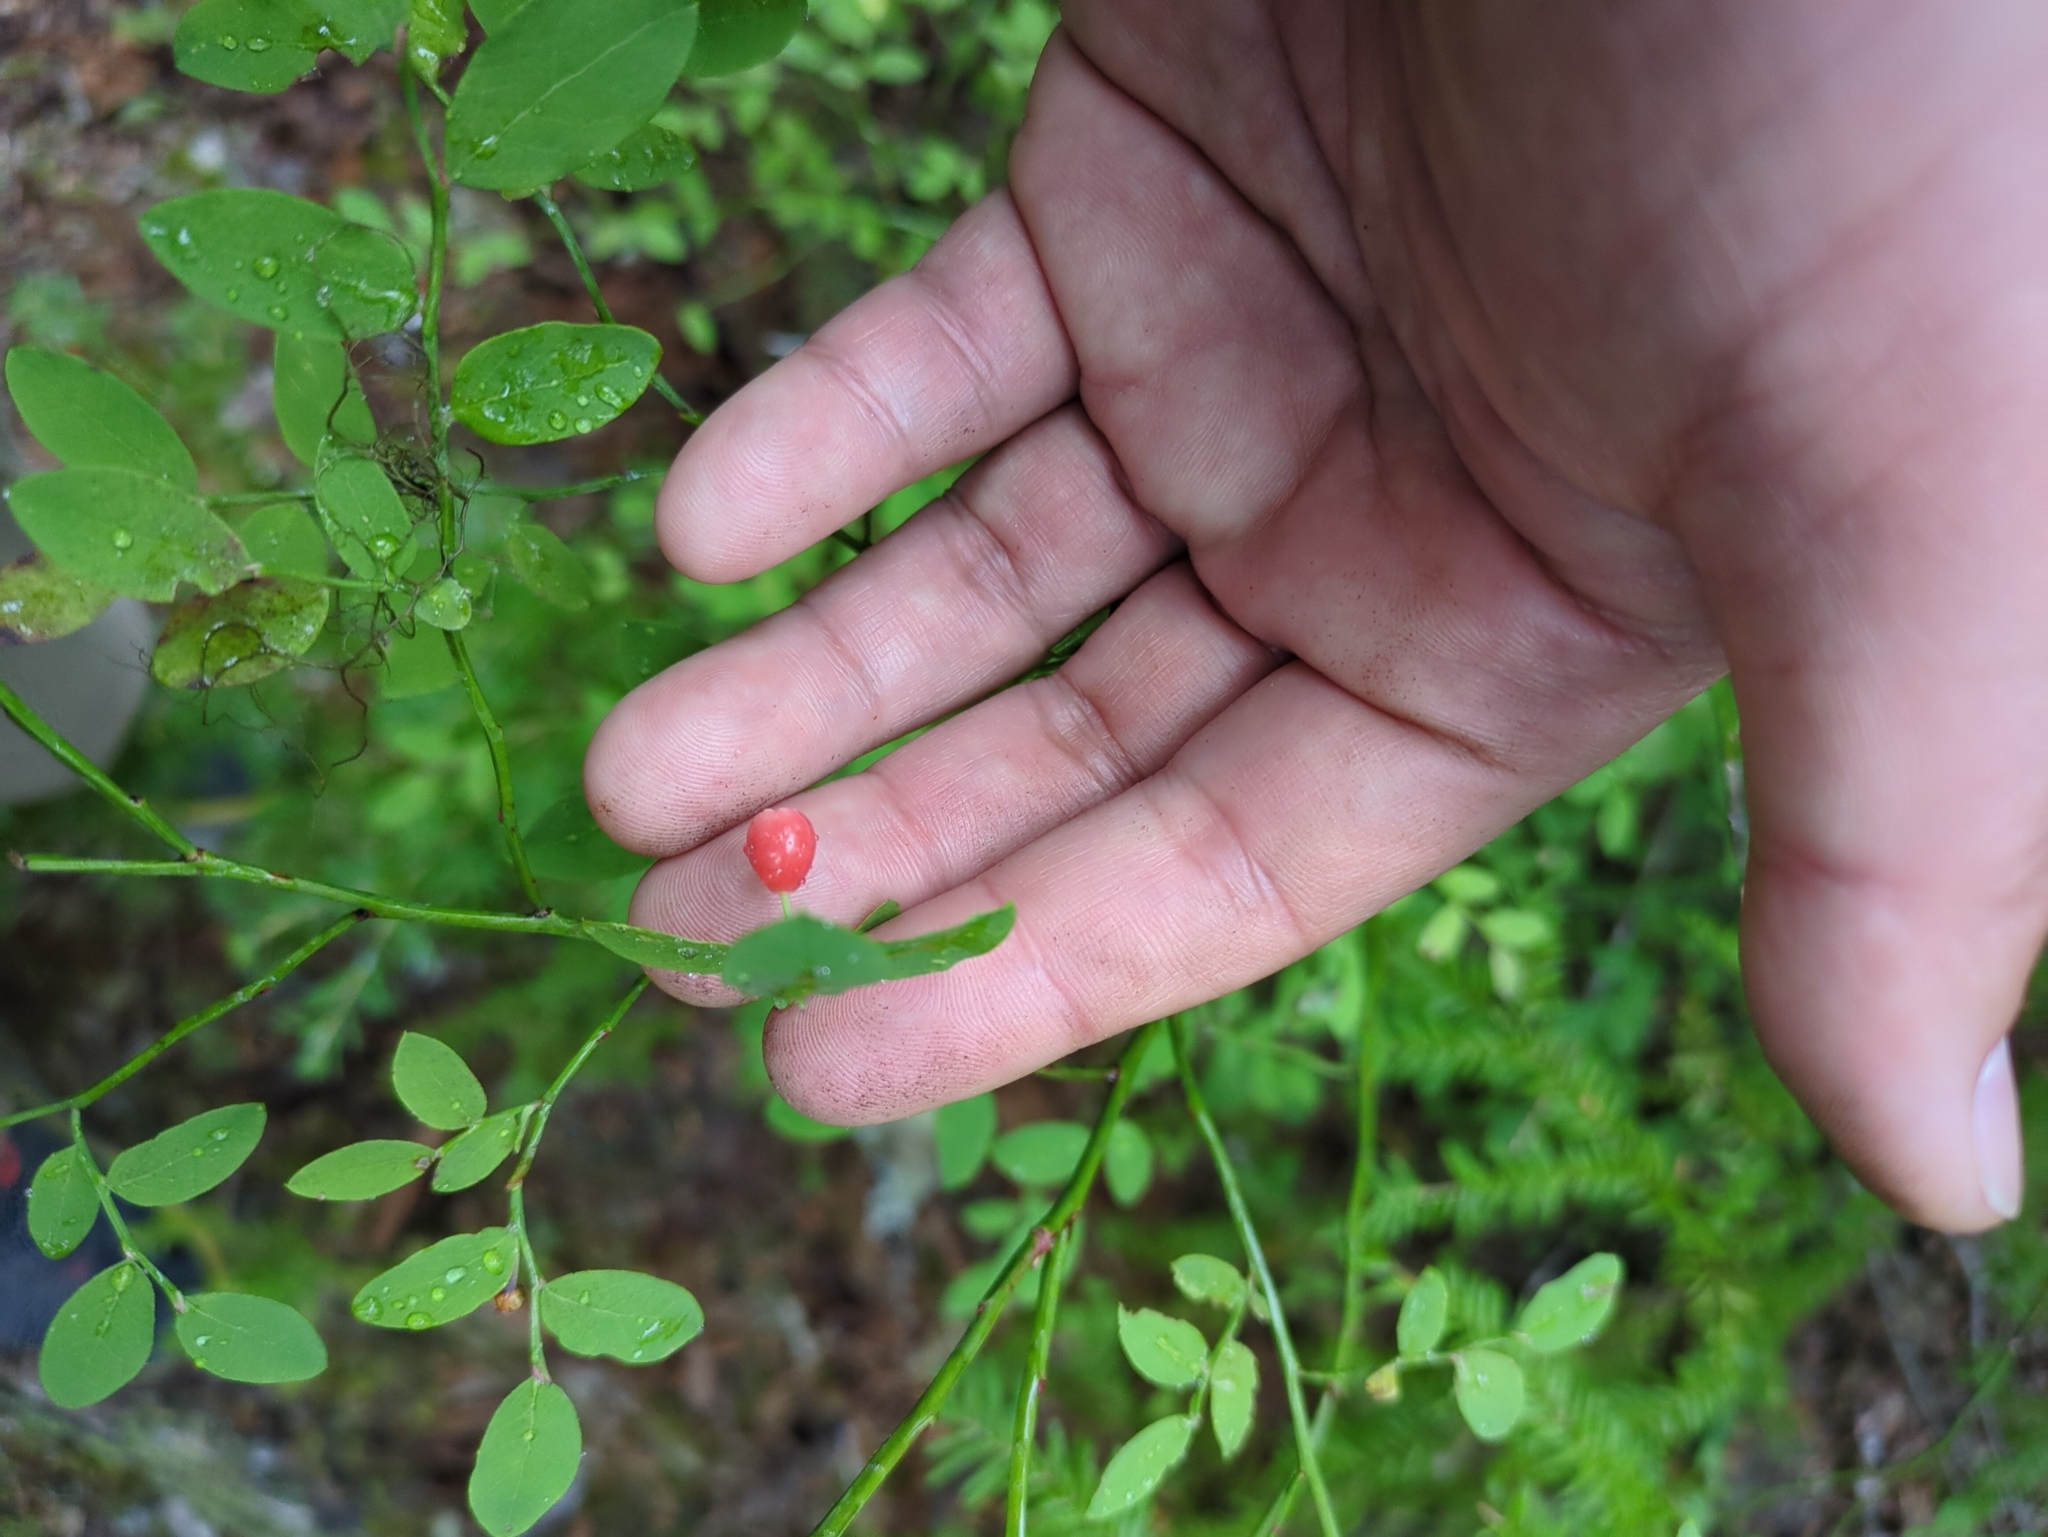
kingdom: Plantae
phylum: Tracheophyta
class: Magnoliopsida
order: Ericales
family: Ericaceae
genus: Vaccinium
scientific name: Vaccinium parvifolium
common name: Red-huckleberry
